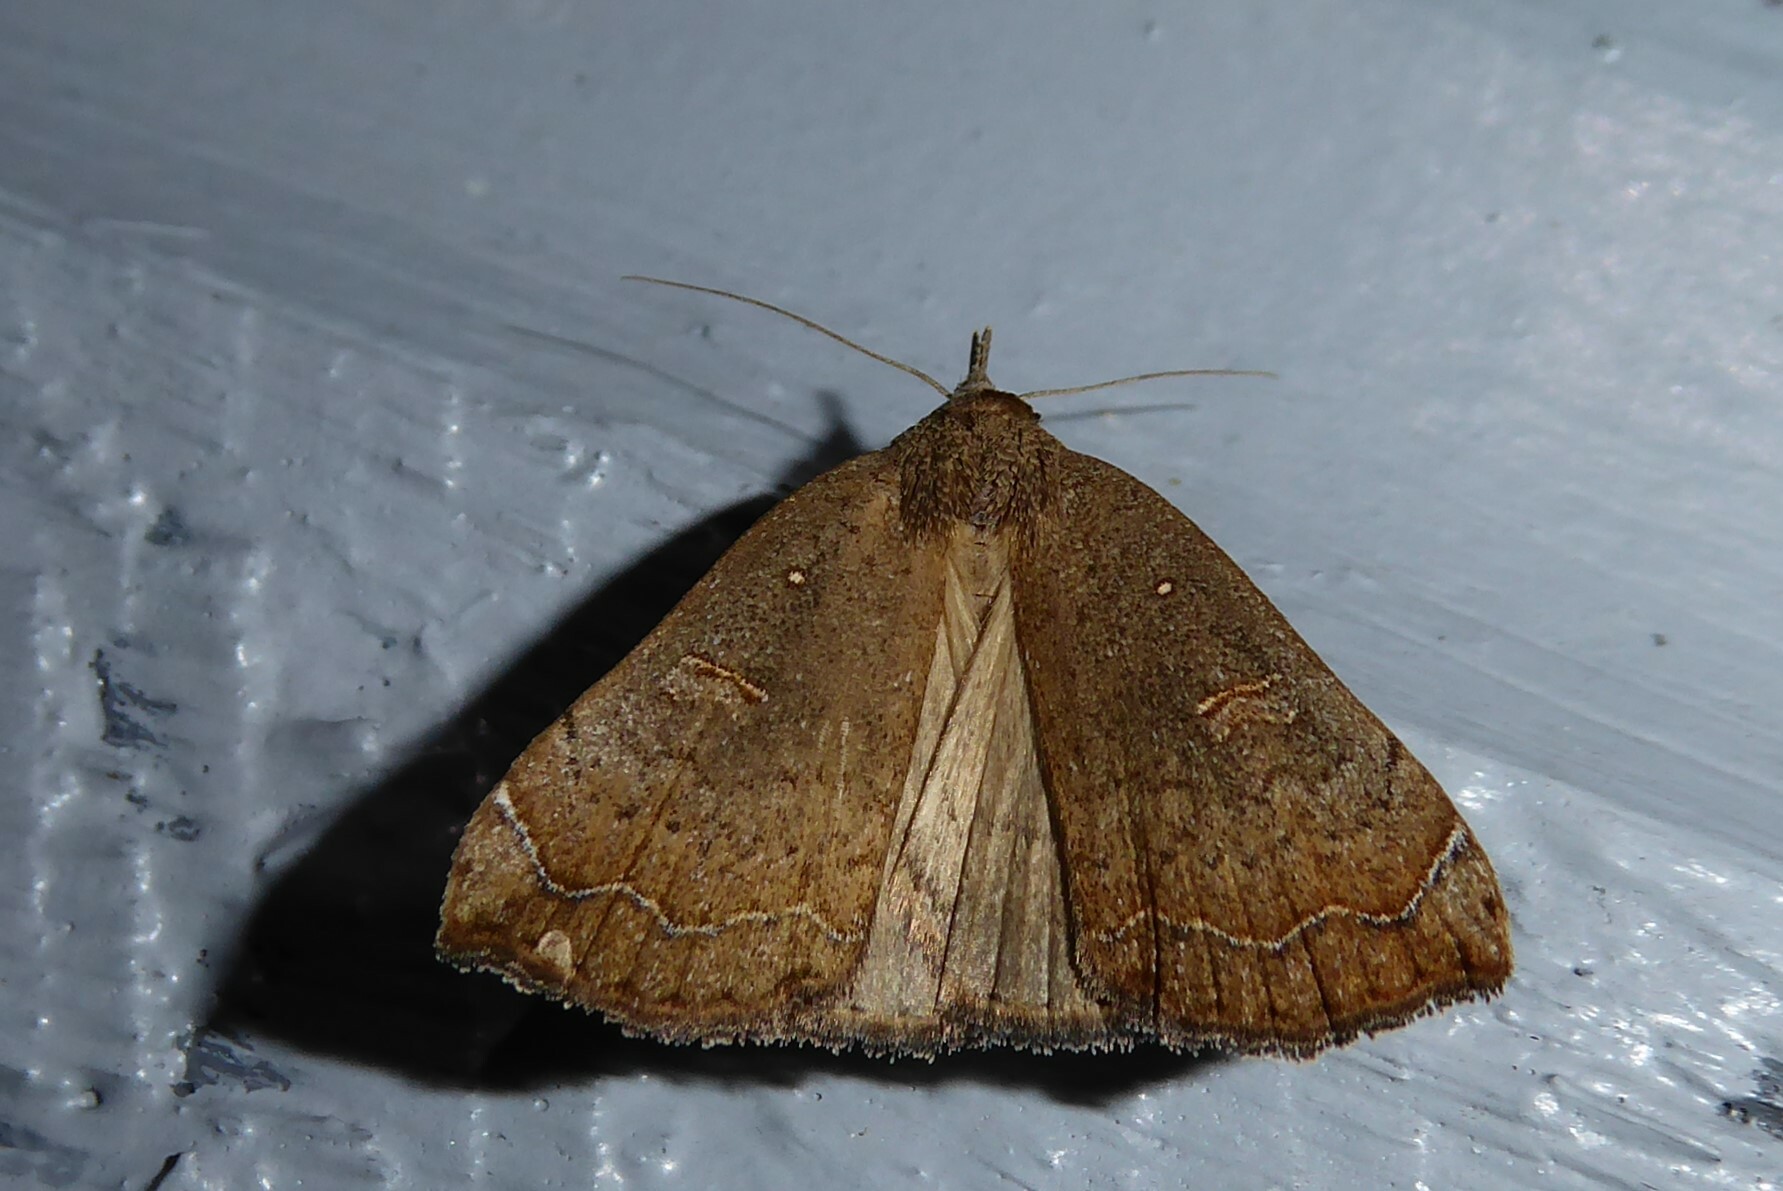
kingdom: Animalia
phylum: Arthropoda
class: Insecta
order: Lepidoptera
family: Erebidae
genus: Rhapsa
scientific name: Rhapsa scotosialis
